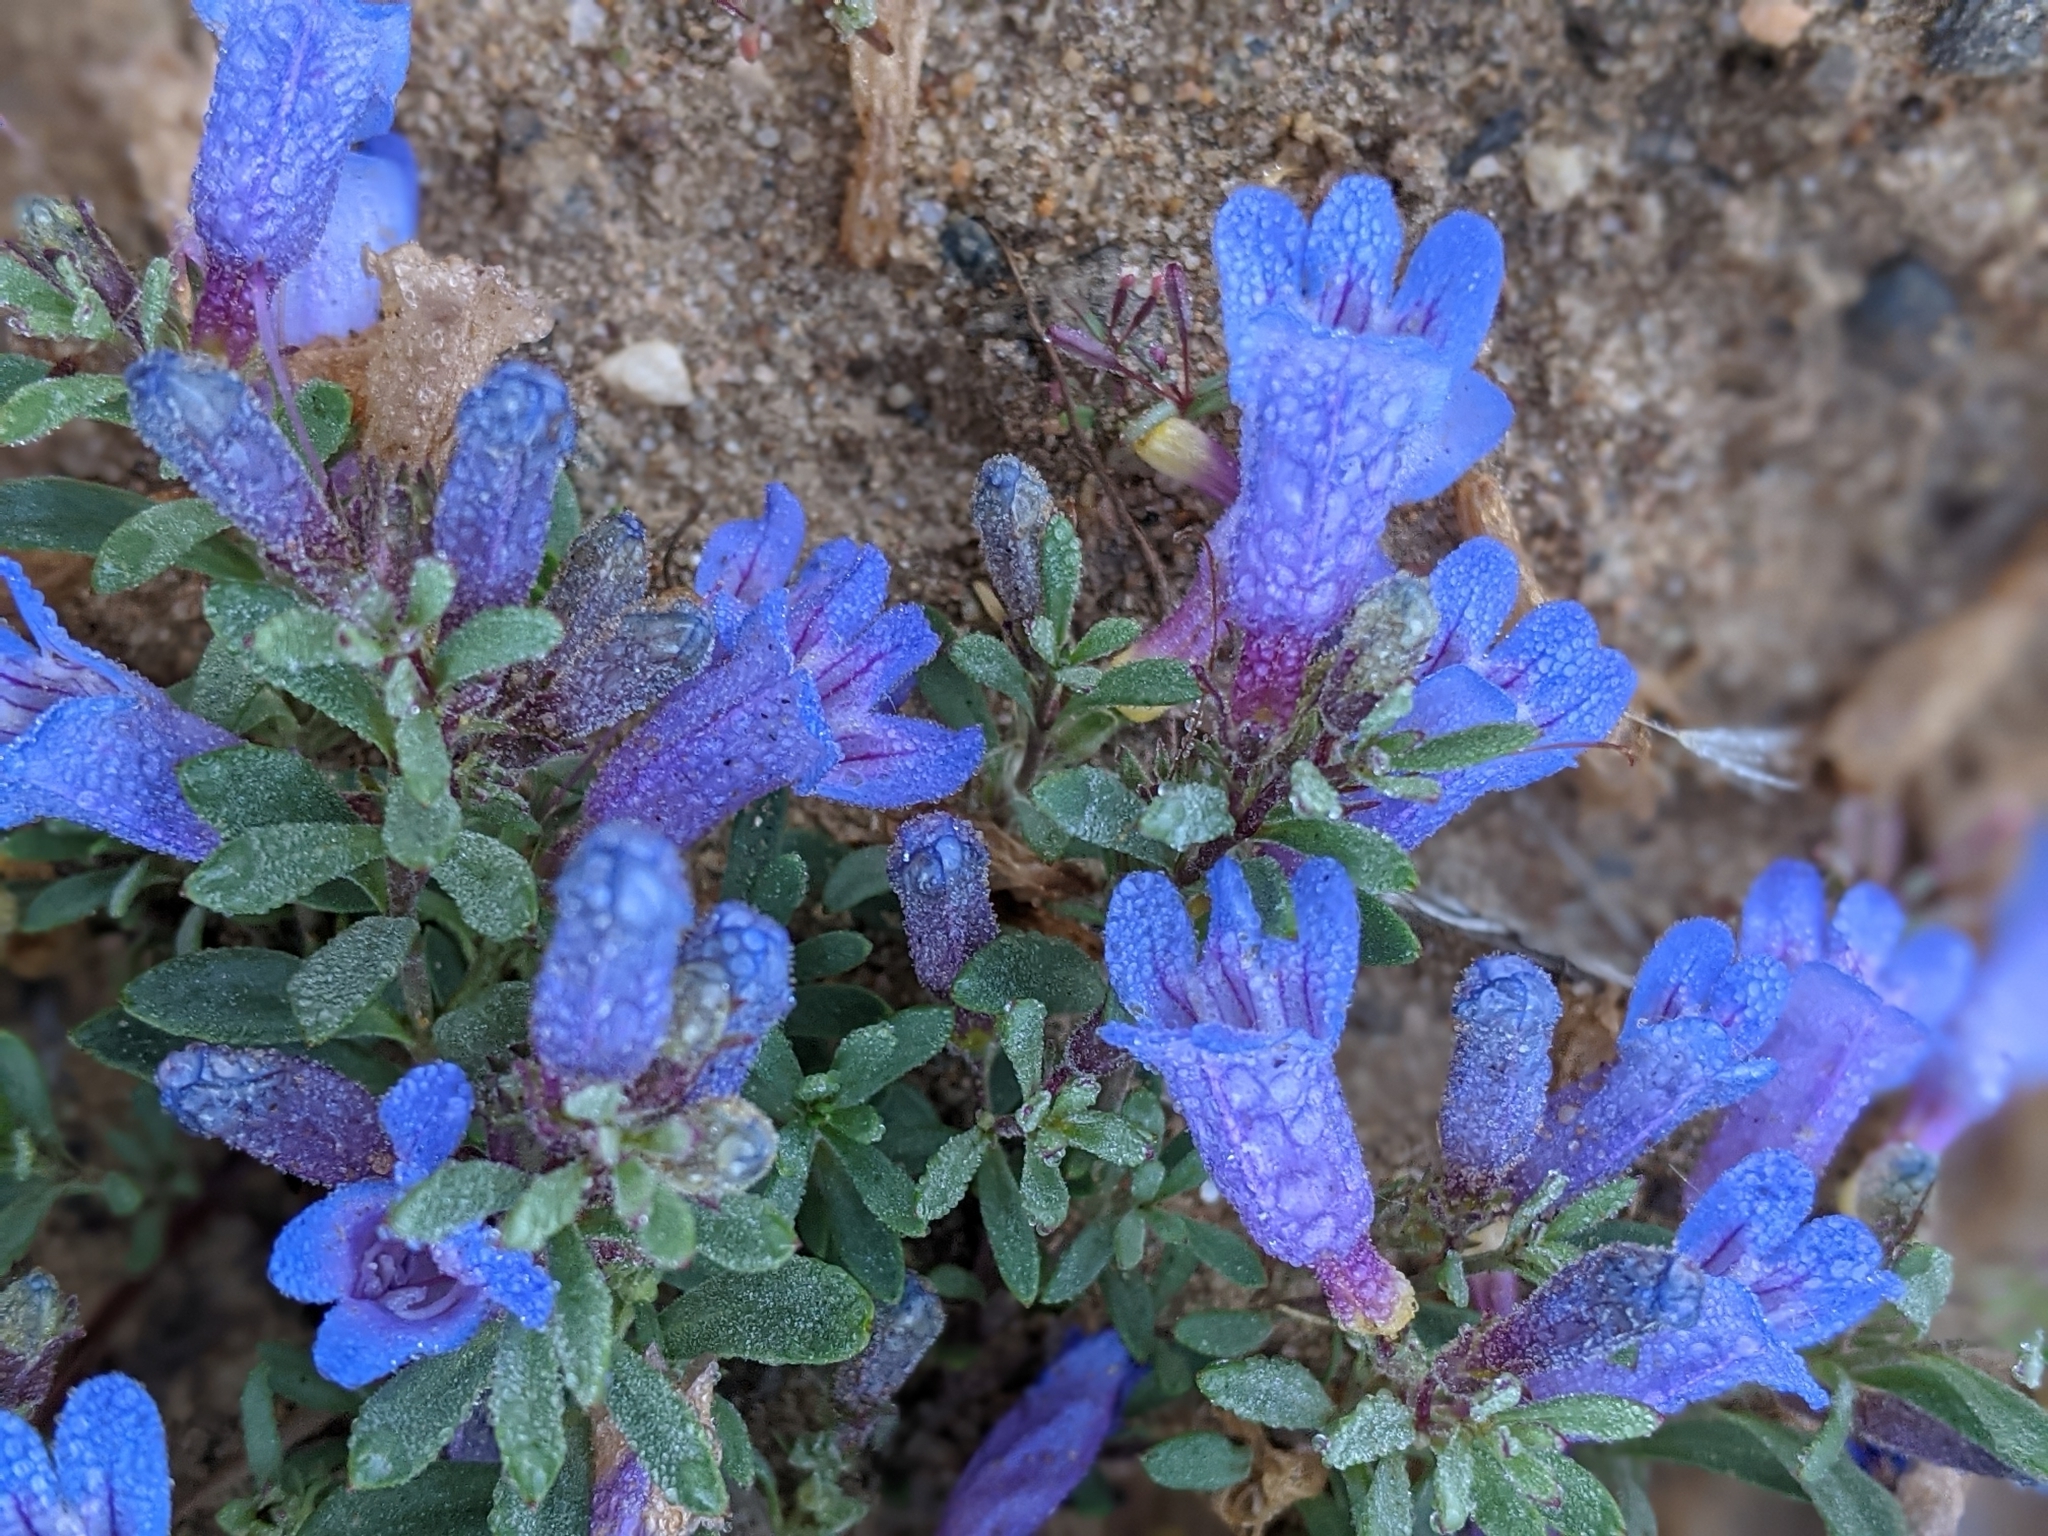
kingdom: Plantae
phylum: Tracheophyta
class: Magnoliopsida
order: Lamiales
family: Plantaginaceae
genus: Penstemon
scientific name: Penstemon caespitosus
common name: Mat penstemon
